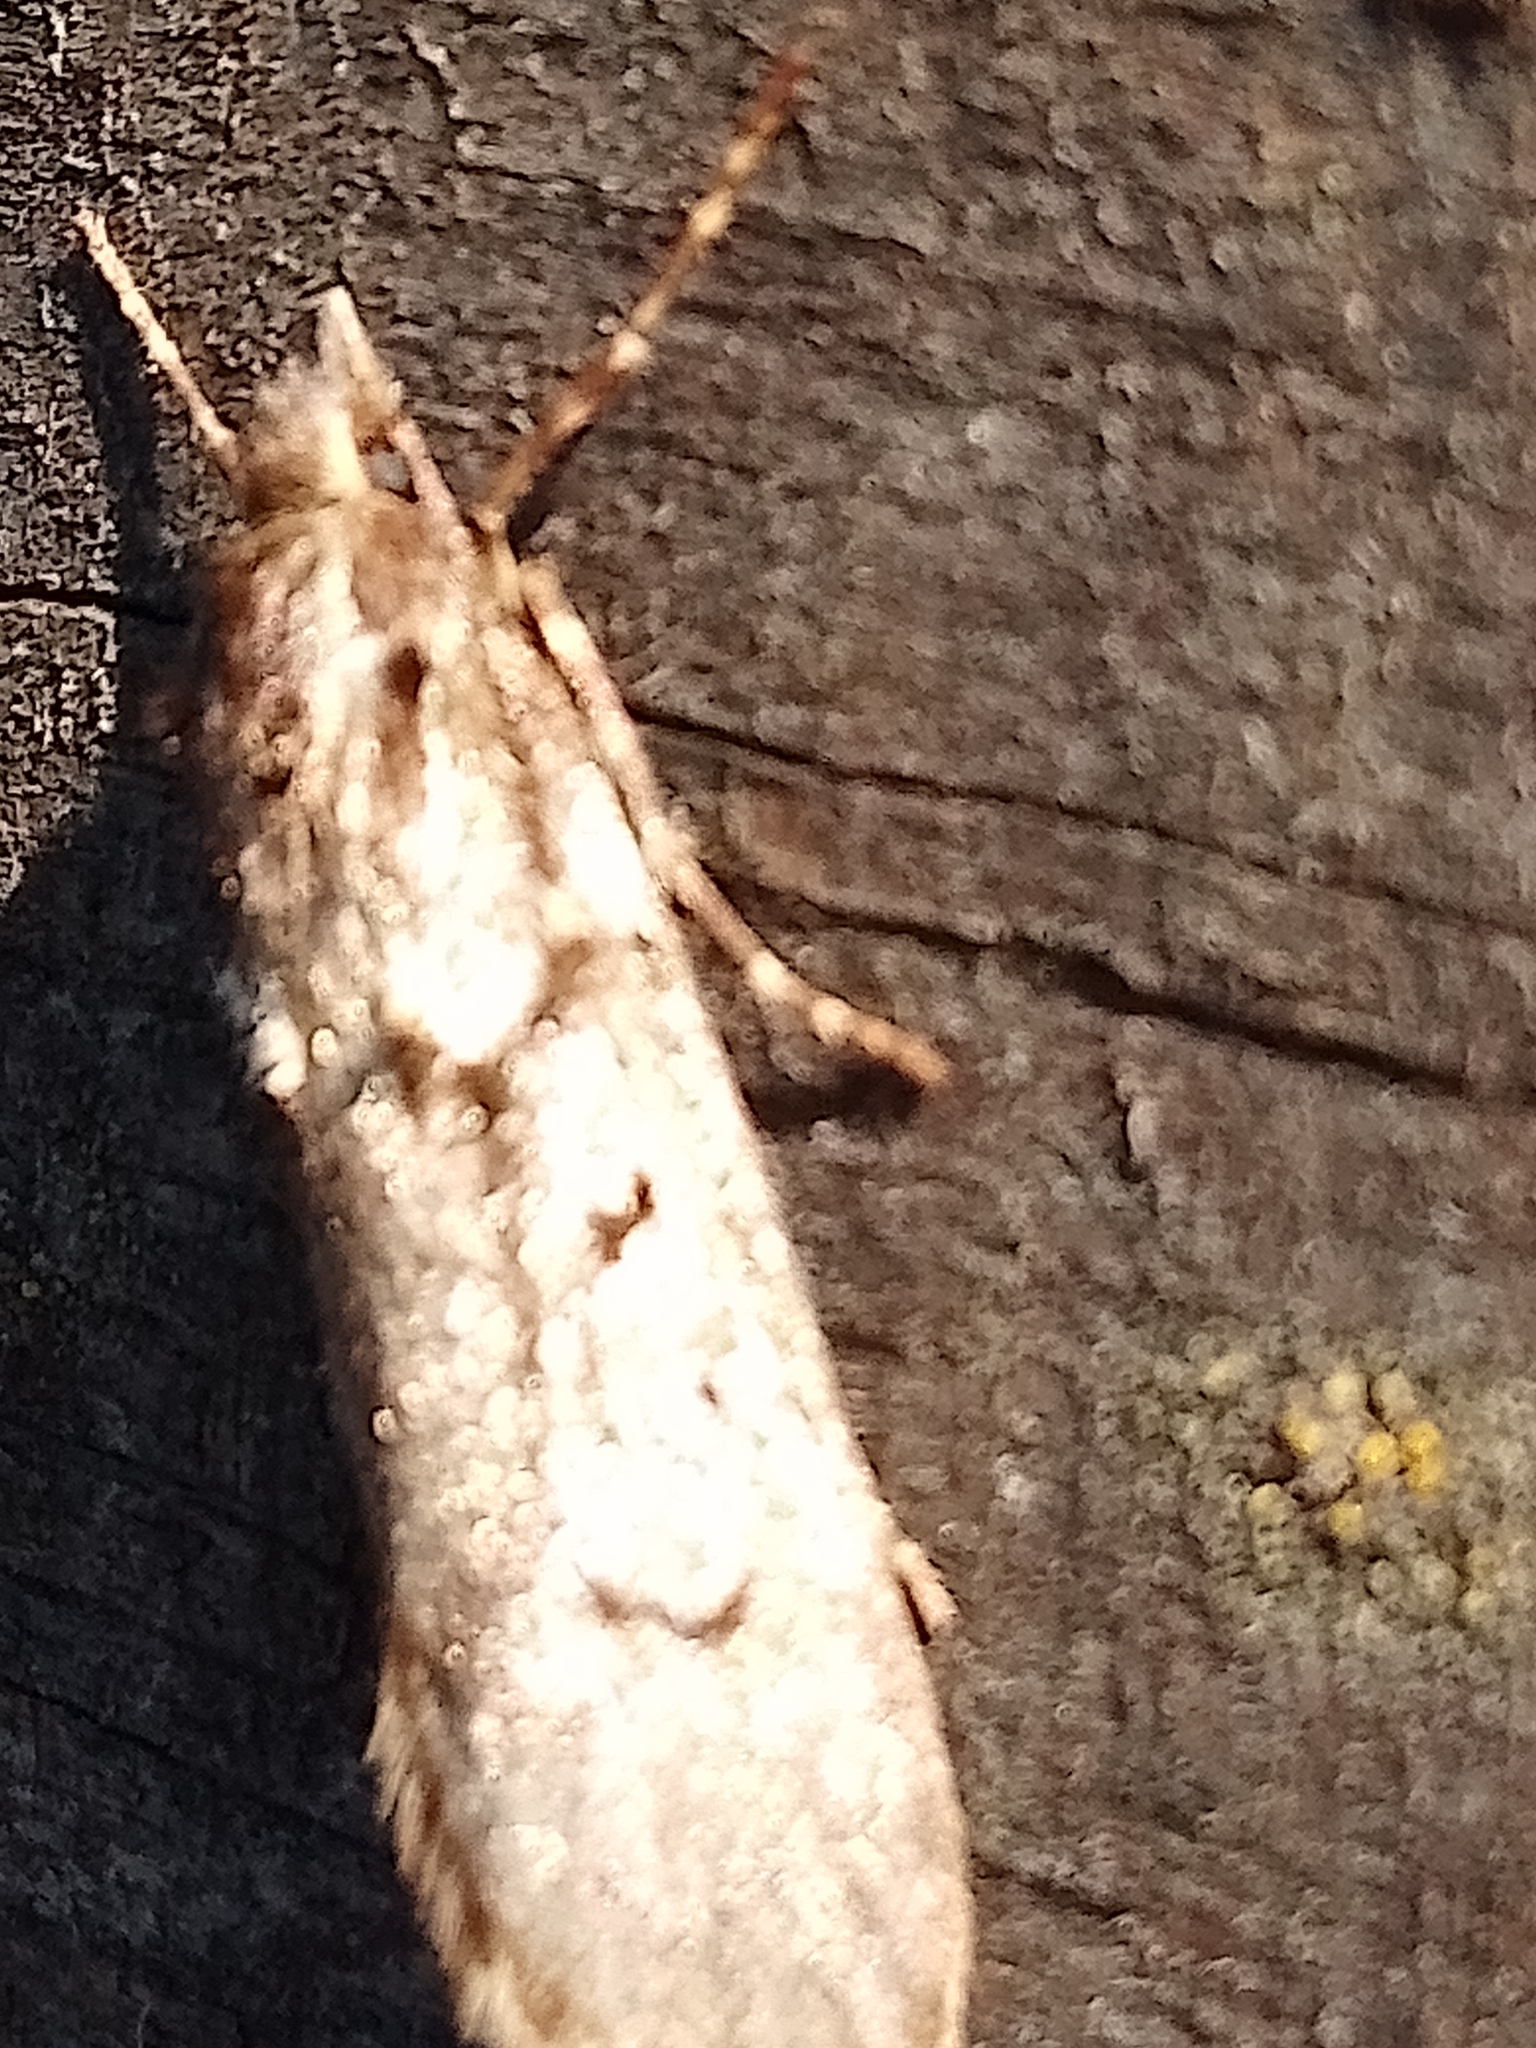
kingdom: Animalia
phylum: Arthropoda
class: Insecta
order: Lepidoptera
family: Lypusidae
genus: Diurnea
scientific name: Diurnea fagella
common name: March tubic
